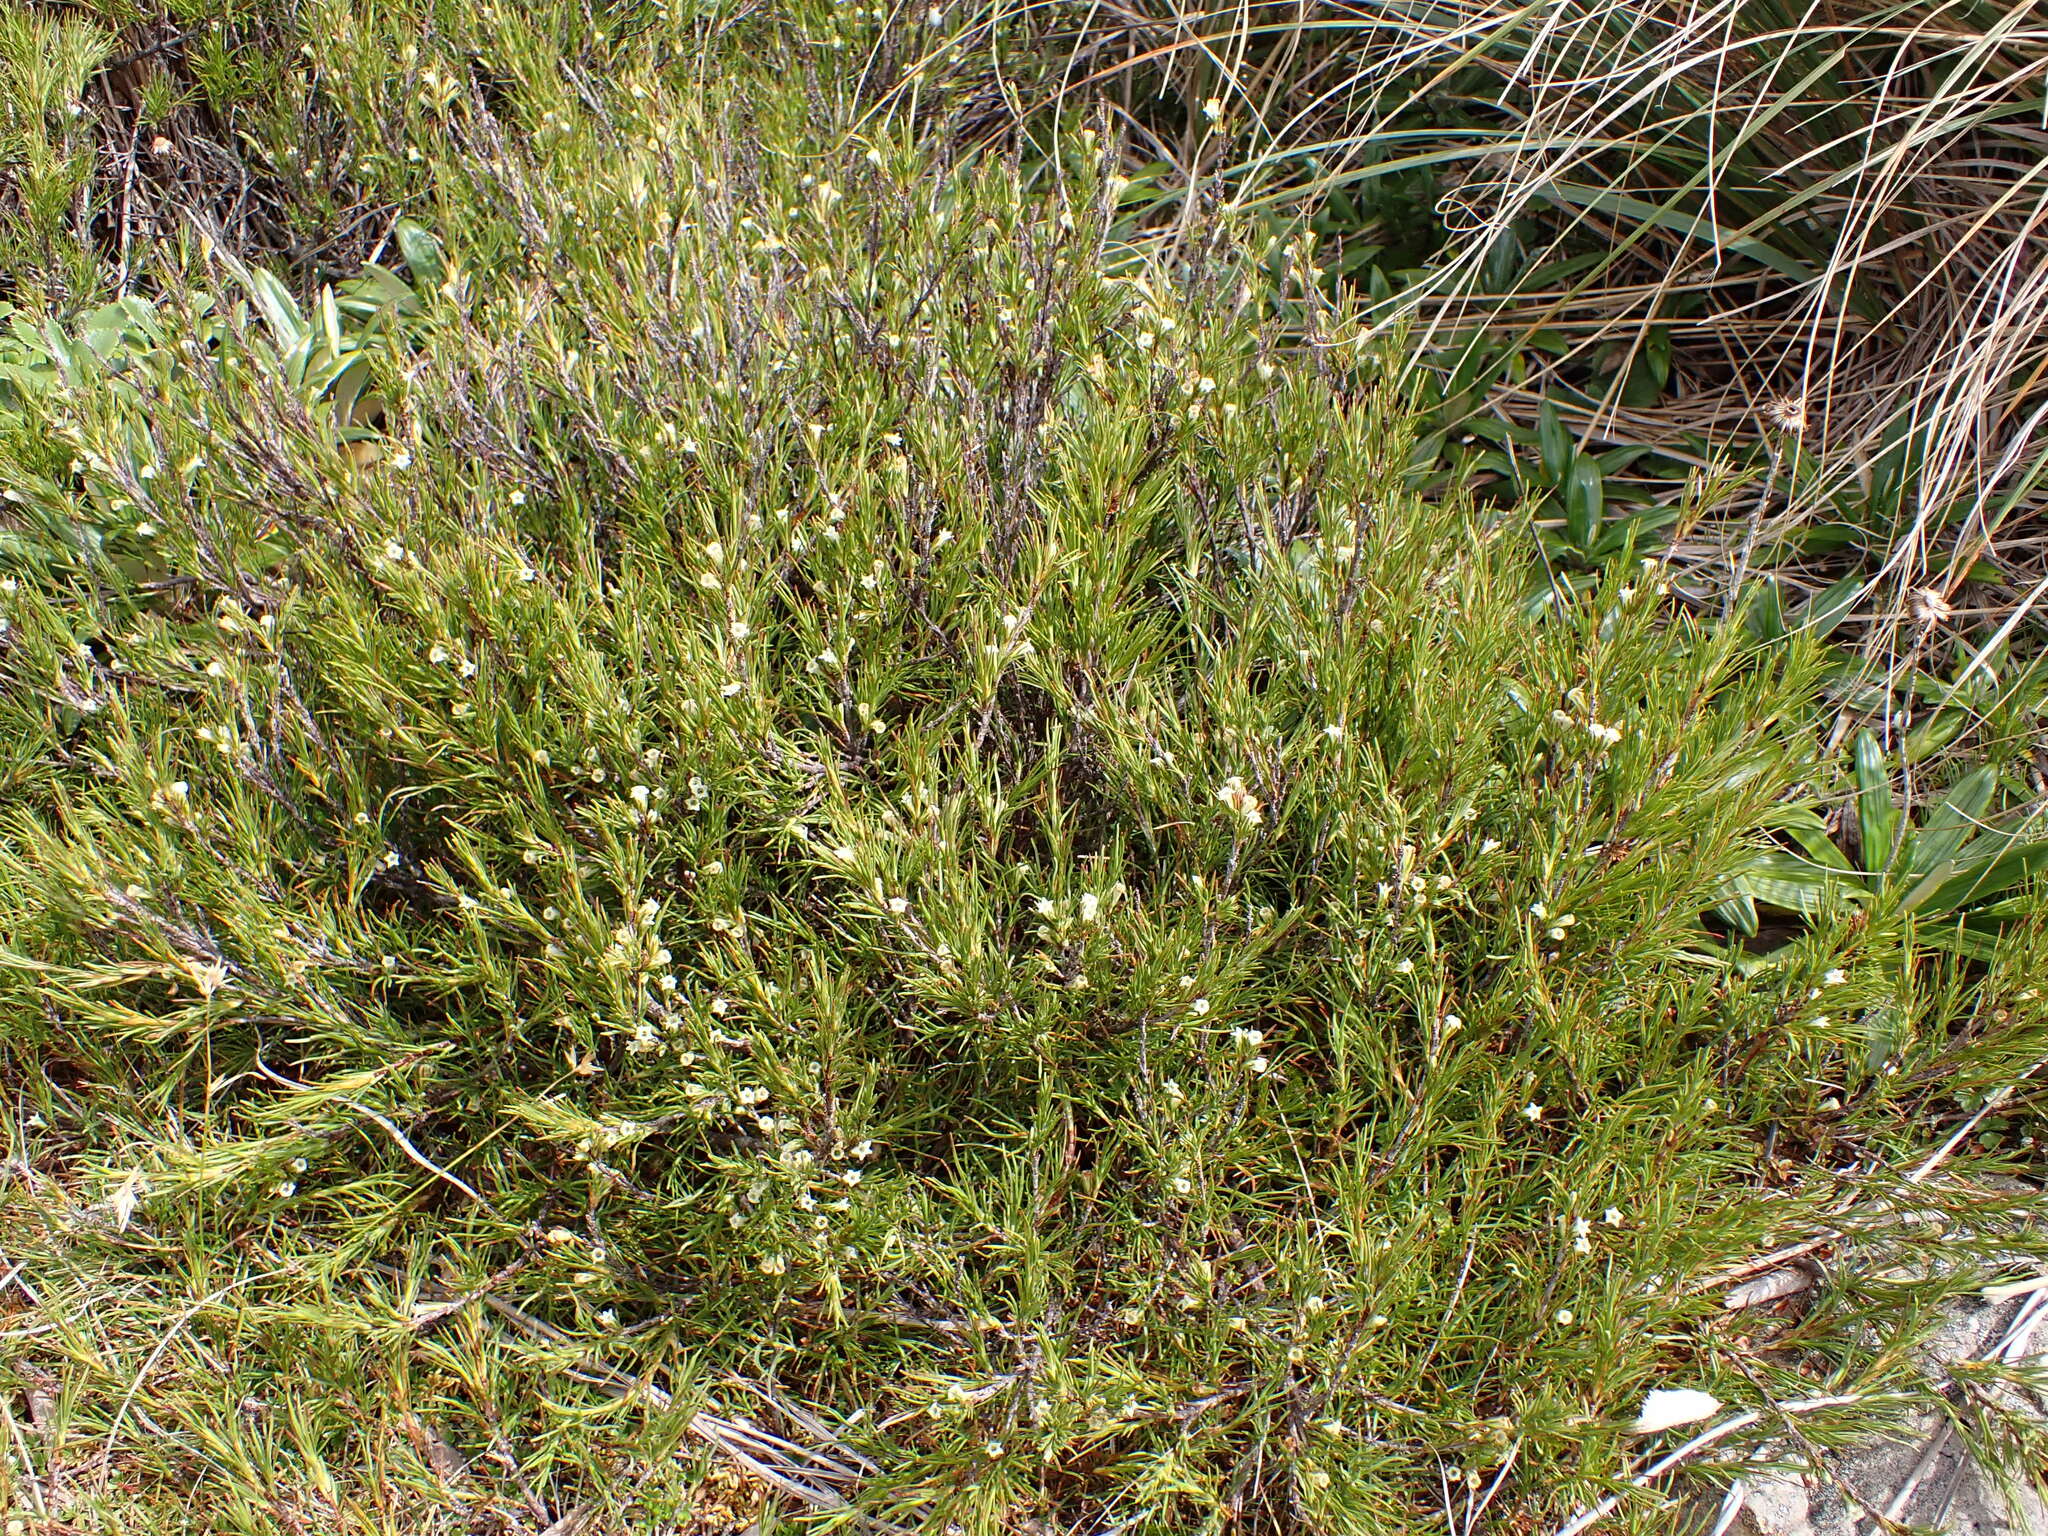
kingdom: Plantae
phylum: Tracheophyta
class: Magnoliopsida
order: Ericales
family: Ericaceae
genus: Dracophyllum
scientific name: Dracophyllum rosmarinifolium
